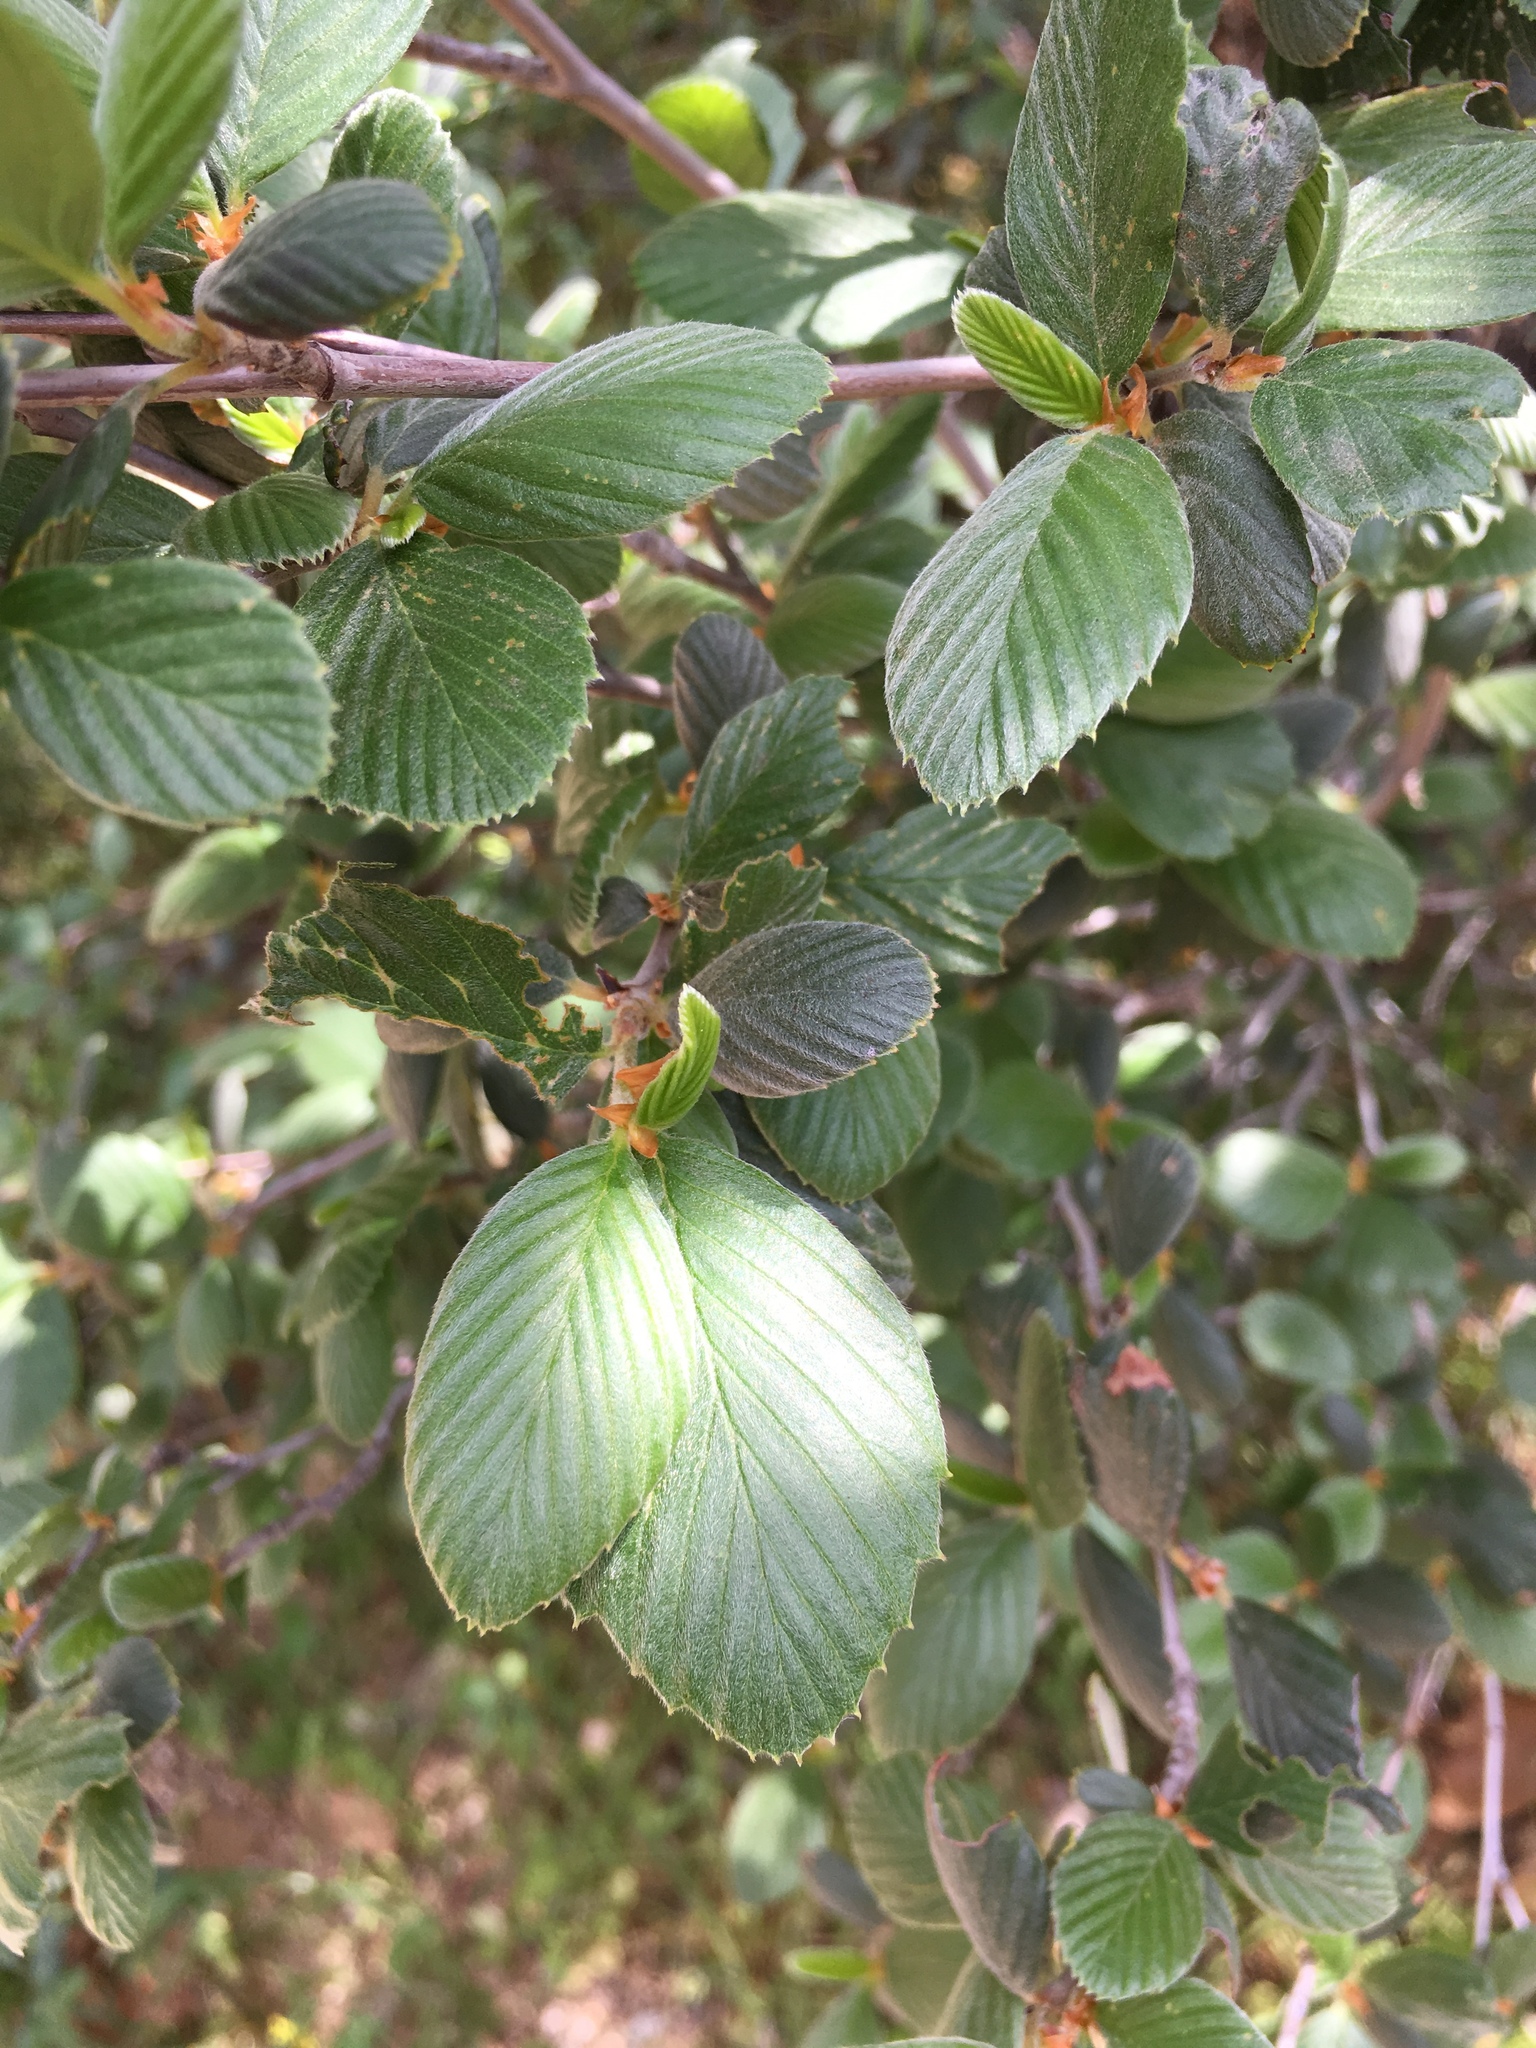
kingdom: Plantae
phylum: Tracheophyta
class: Magnoliopsida
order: Rosales
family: Rosaceae
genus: Cercocarpus
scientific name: Cercocarpus betuloides
